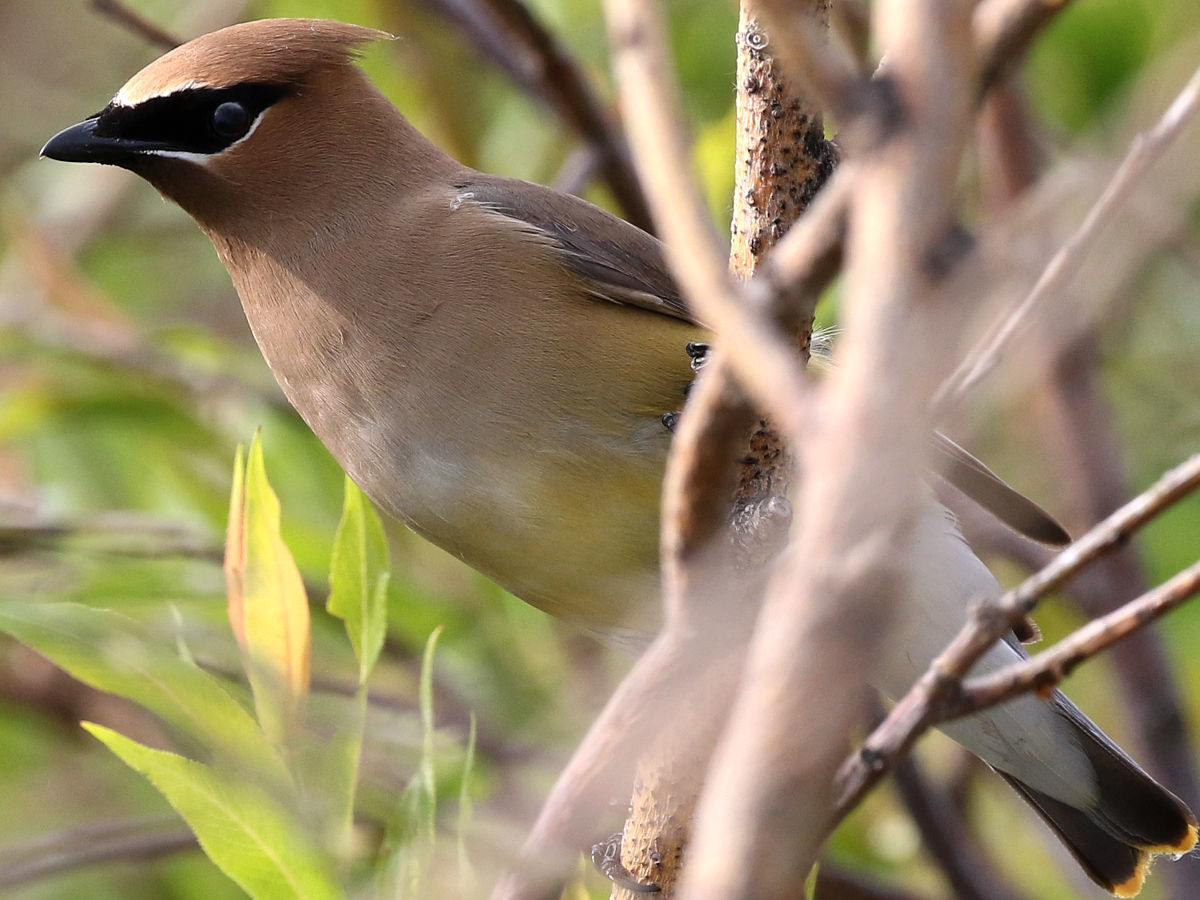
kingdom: Animalia
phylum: Chordata
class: Aves
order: Passeriformes
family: Bombycillidae
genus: Bombycilla
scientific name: Bombycilla cedrorum
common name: Cedar waxwing
